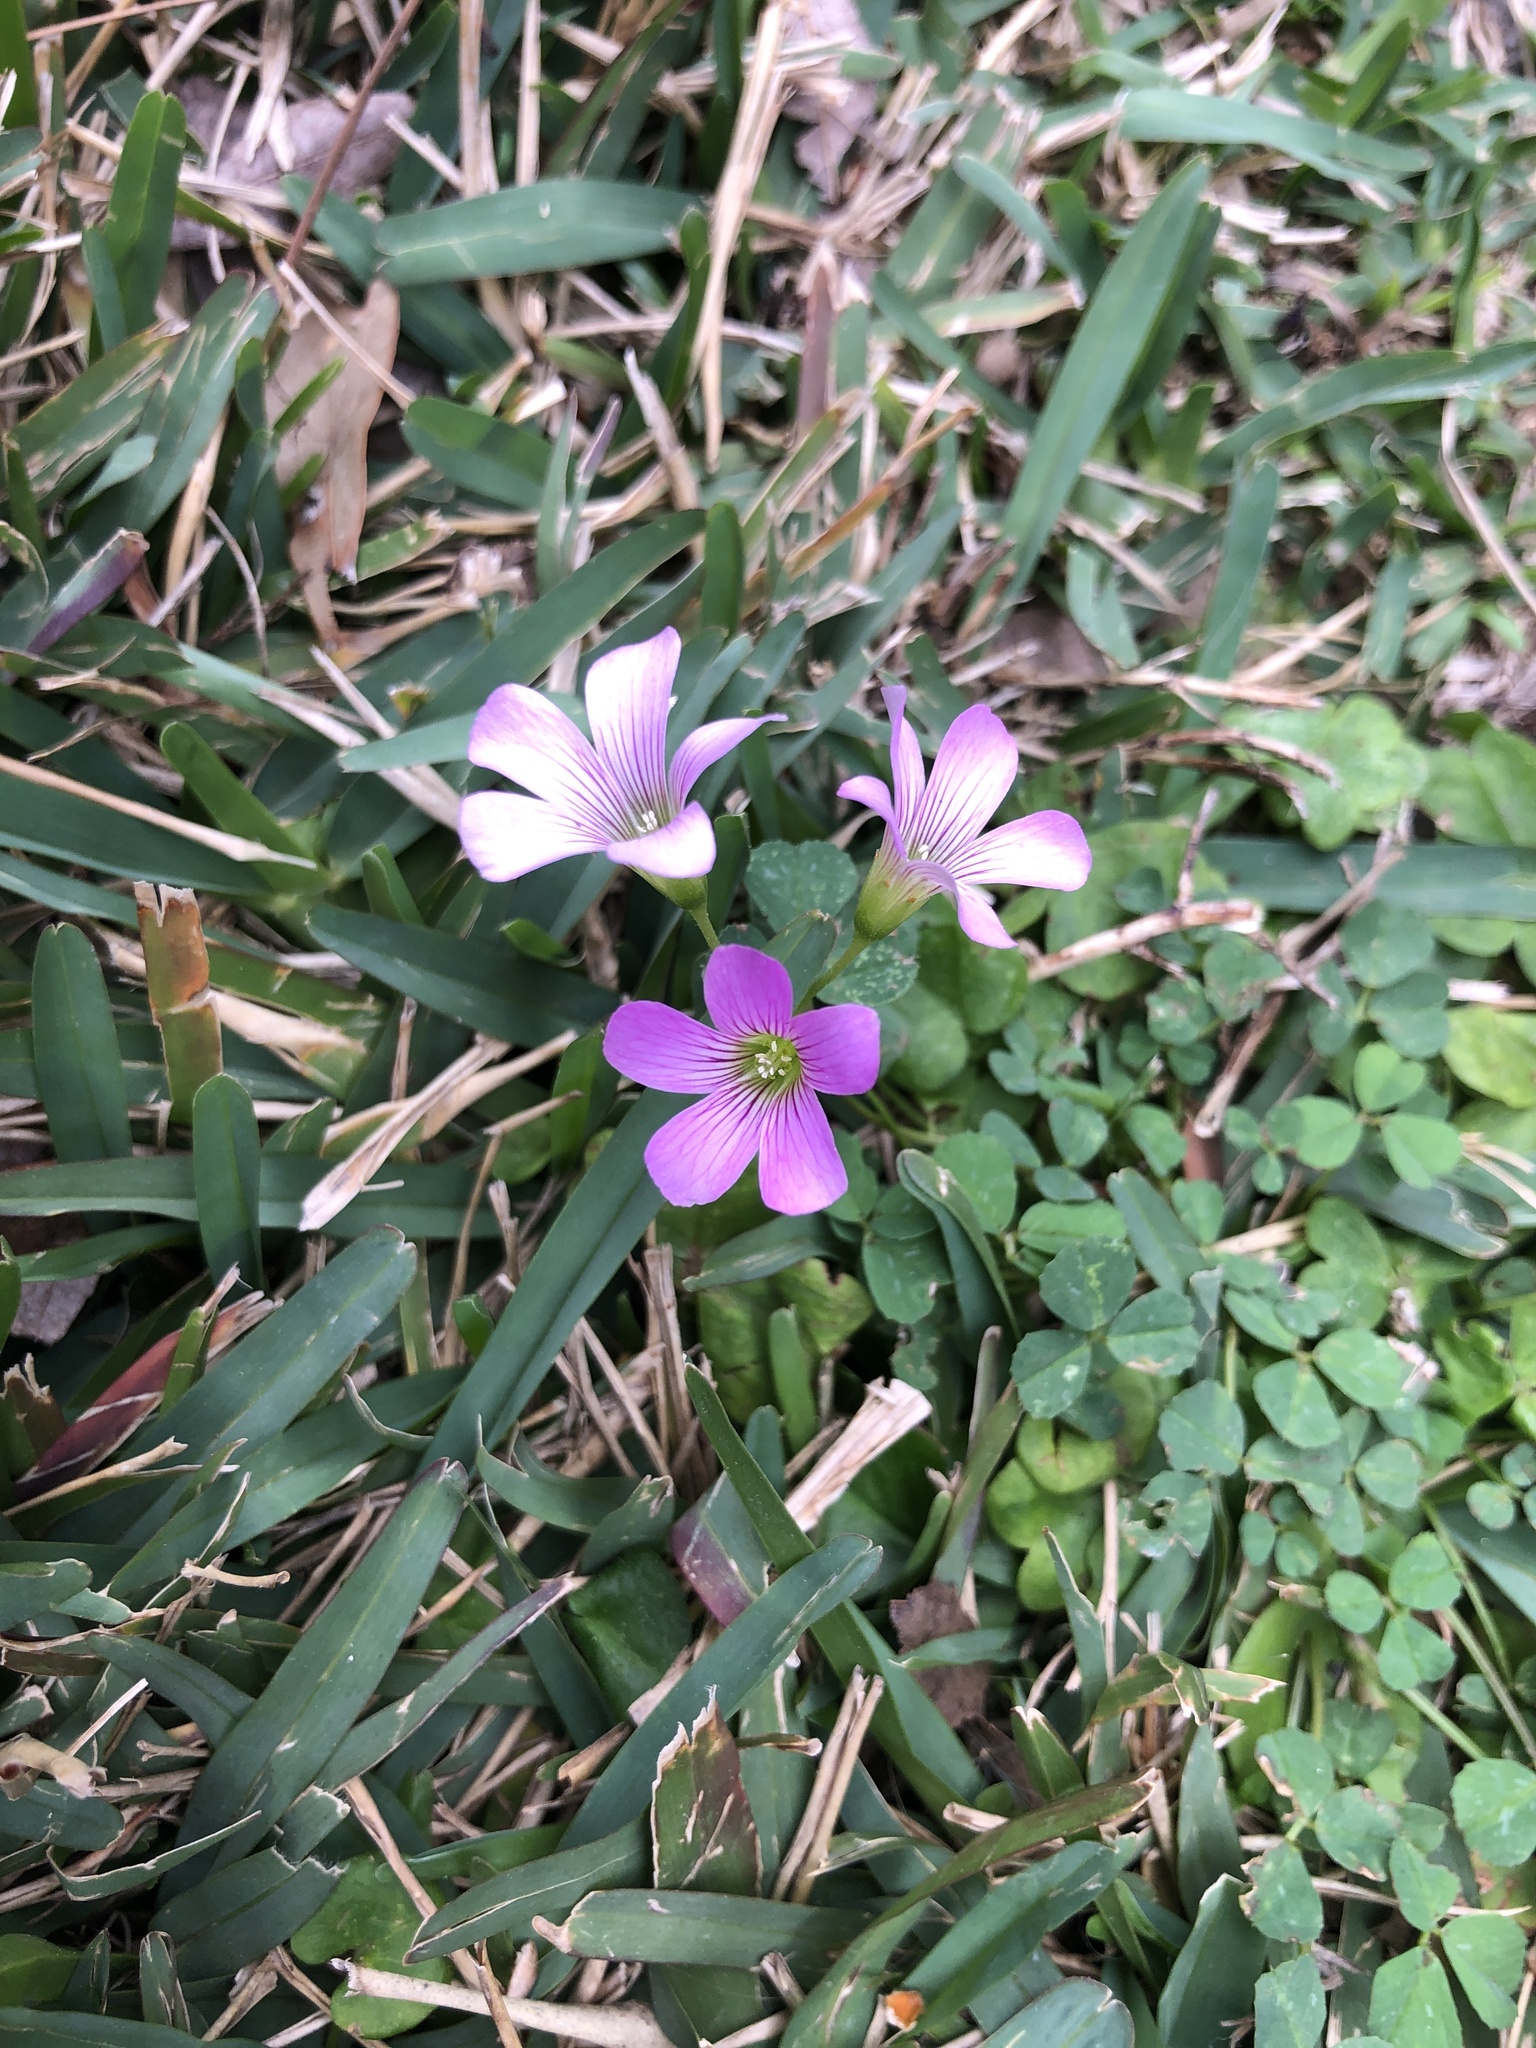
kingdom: Plantae
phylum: Tracheophyta
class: Magnoliopsida
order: Oxalidales
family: Oxalidaceae
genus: Oxalis
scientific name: Oxalis debilis
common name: Large-flowered pink-sorrel
